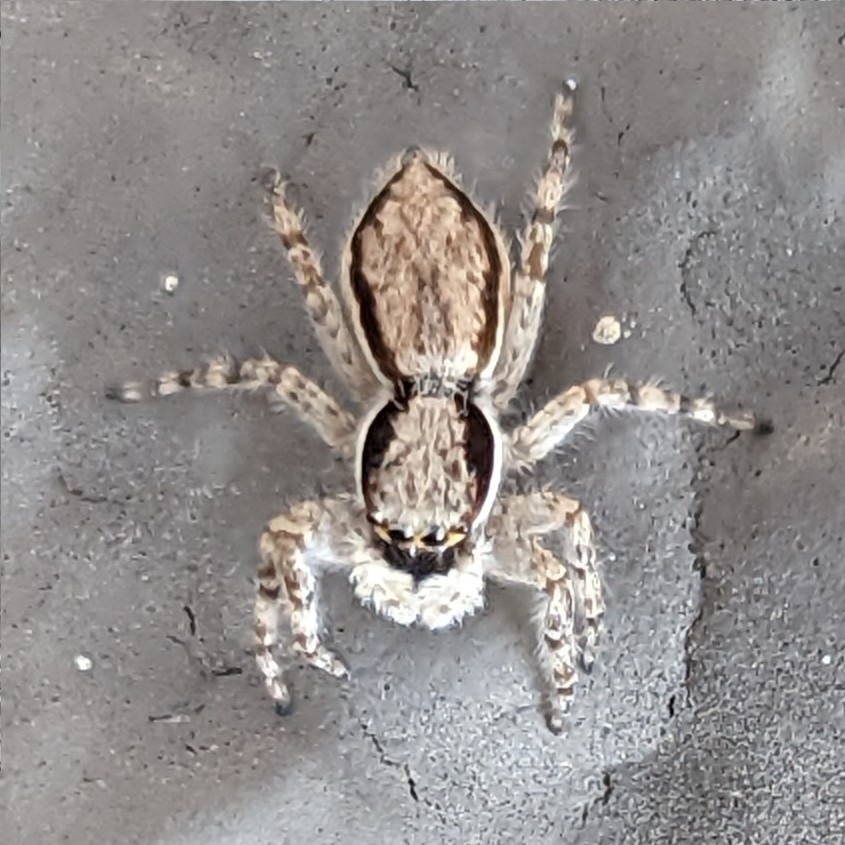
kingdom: Animalia
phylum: Arthropoda
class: Arachnida
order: Araneae
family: Salticidae
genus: Menemerus
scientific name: Menemerus bivittatus
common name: Gray wall jumper
